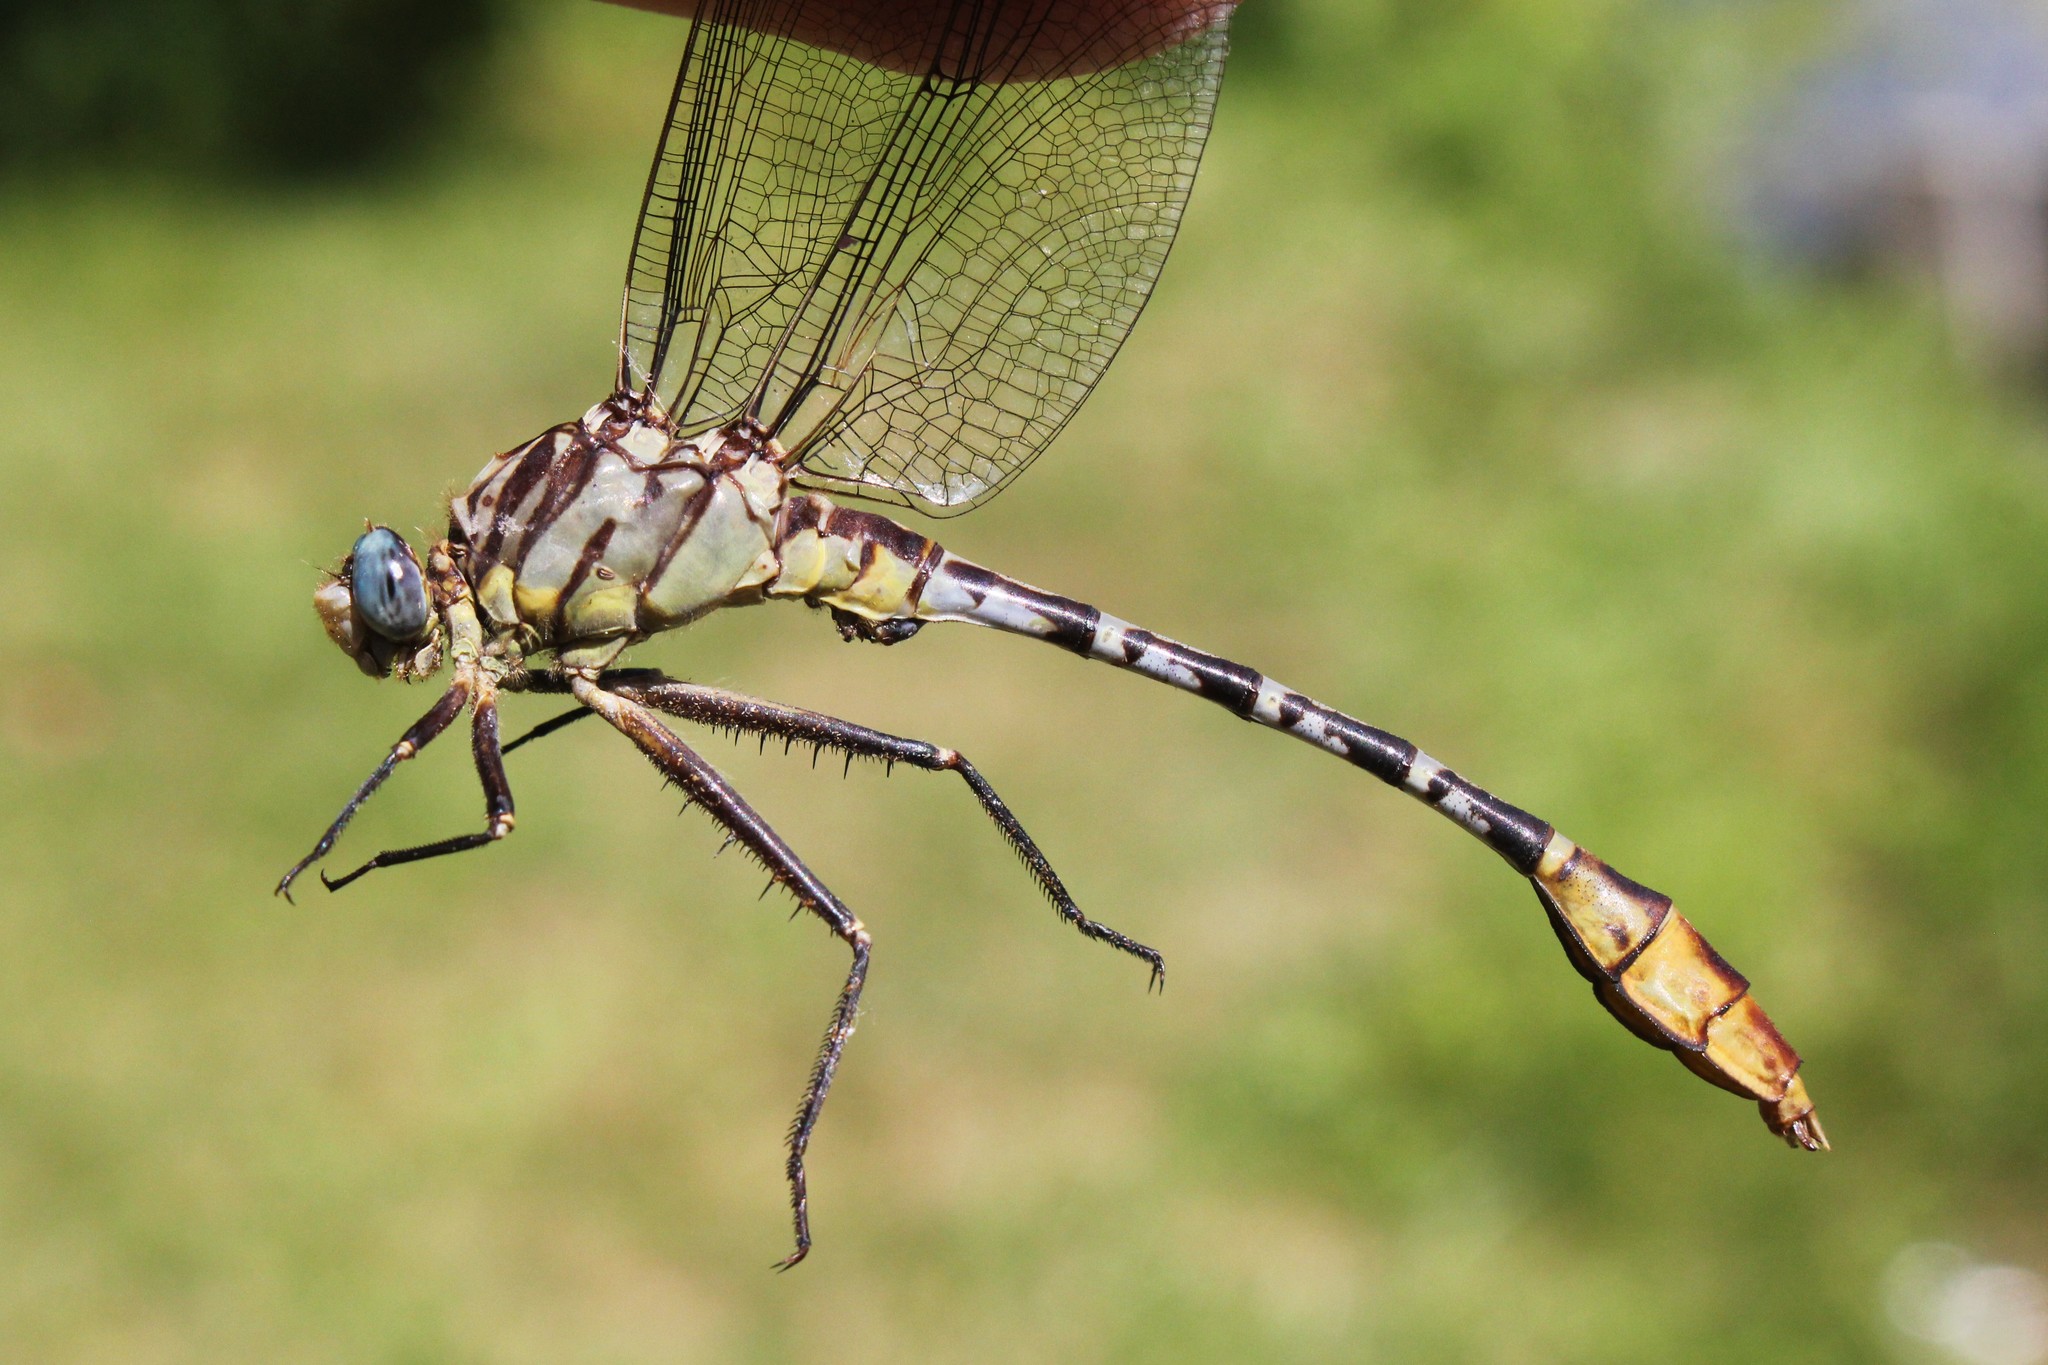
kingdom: Animalia
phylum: Arthropoda
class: Insecta
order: Odonata
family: Gomphidae
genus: Dromogomphus
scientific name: Dromogomphus spoliatus
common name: Flag-tailed spinyleg
